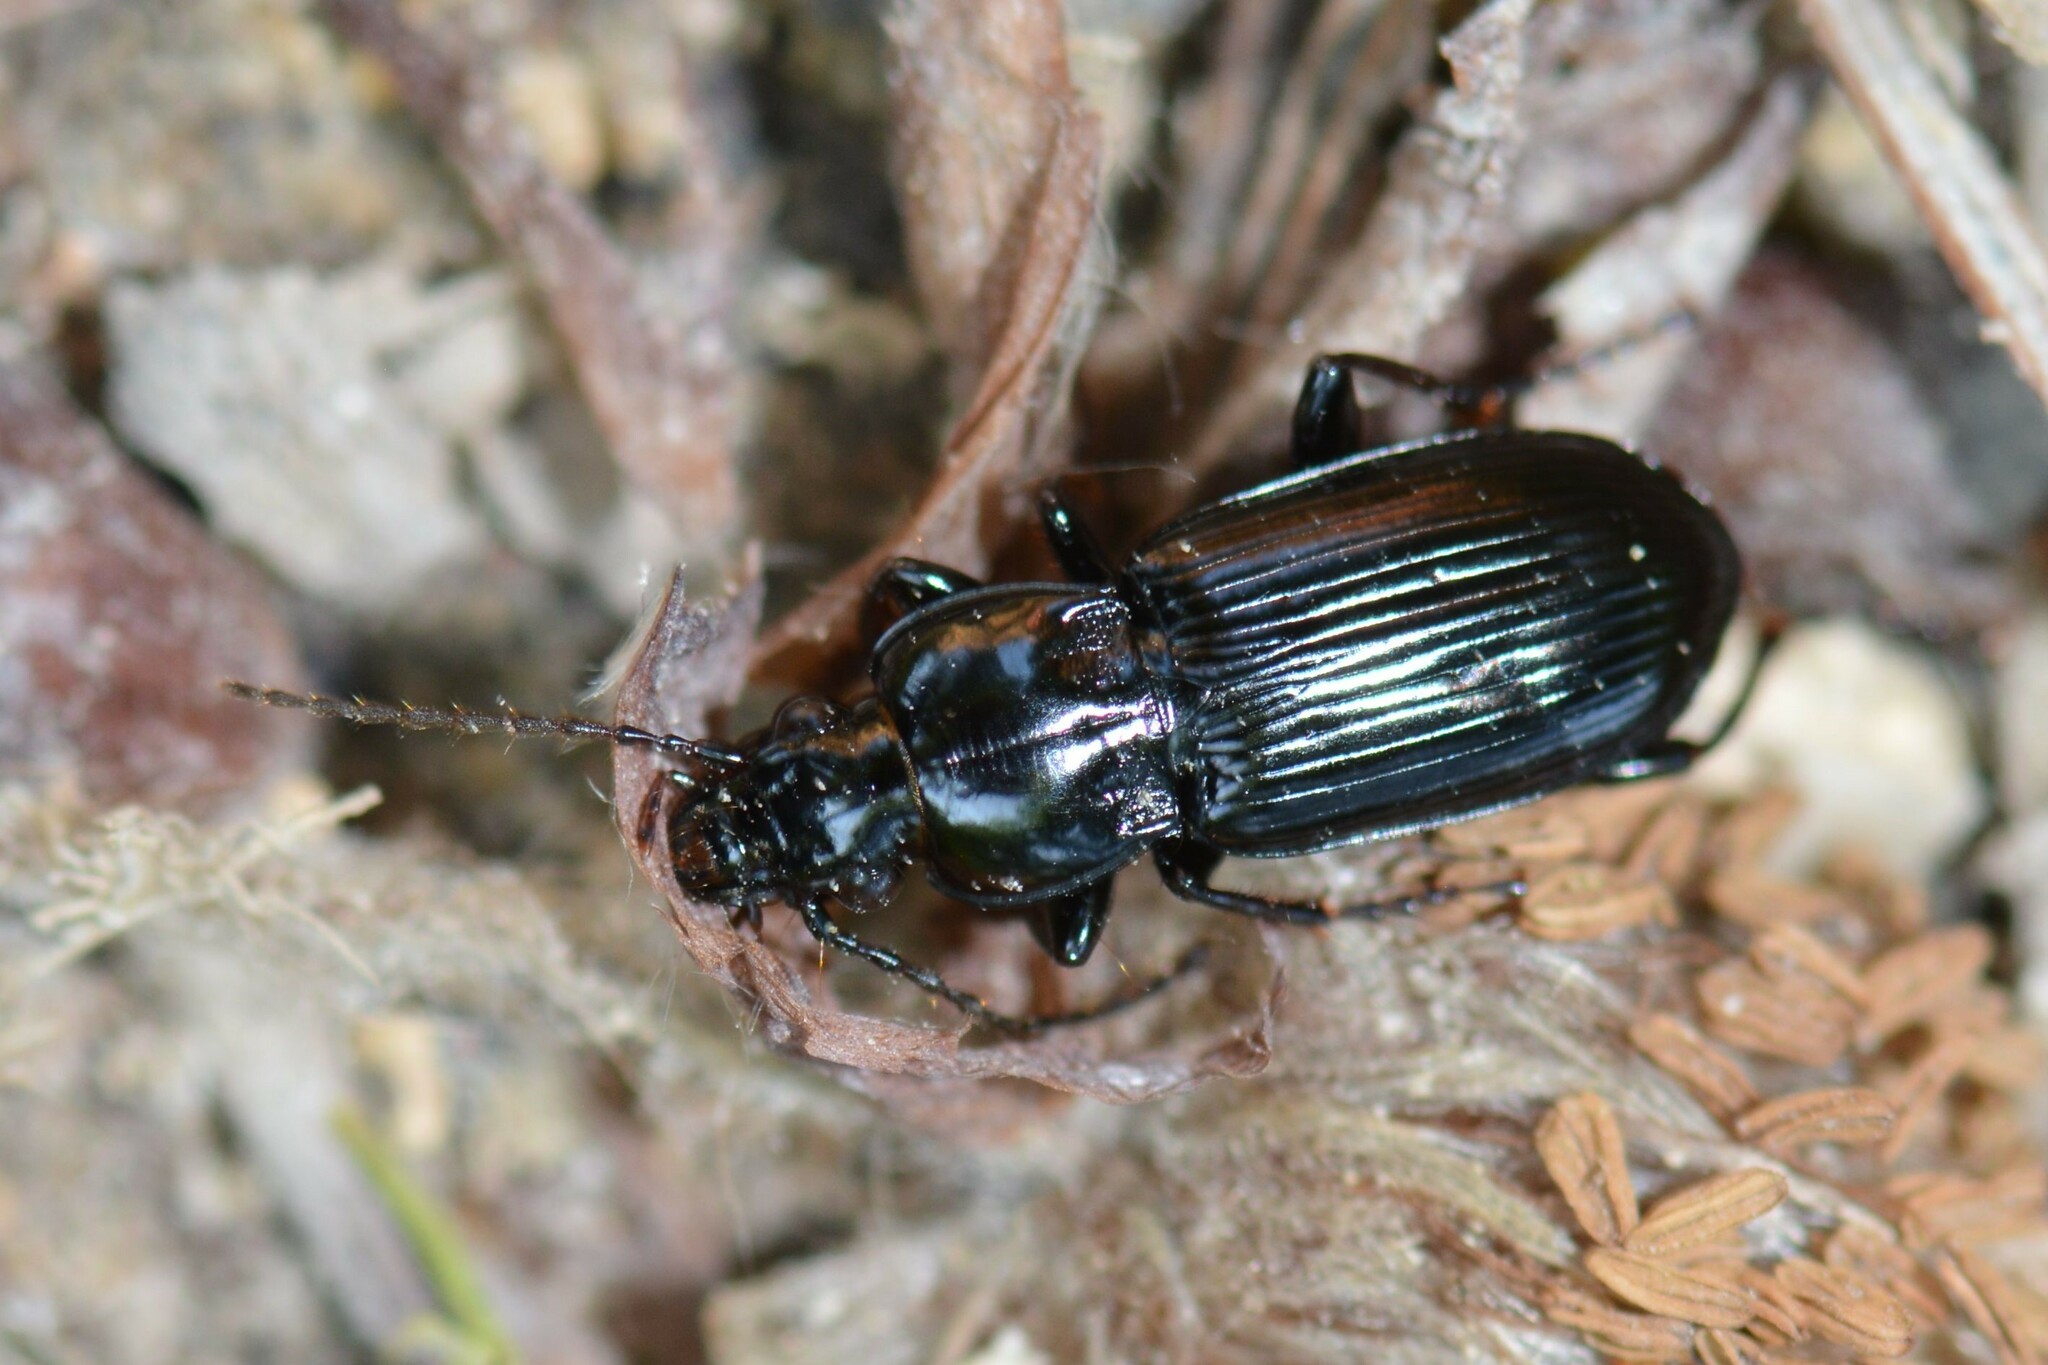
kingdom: Animalia
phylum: Arthropoda
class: Insecta
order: Coleoptera
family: Carabidae
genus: Pterostichus
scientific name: Pterostichus anthracinus
